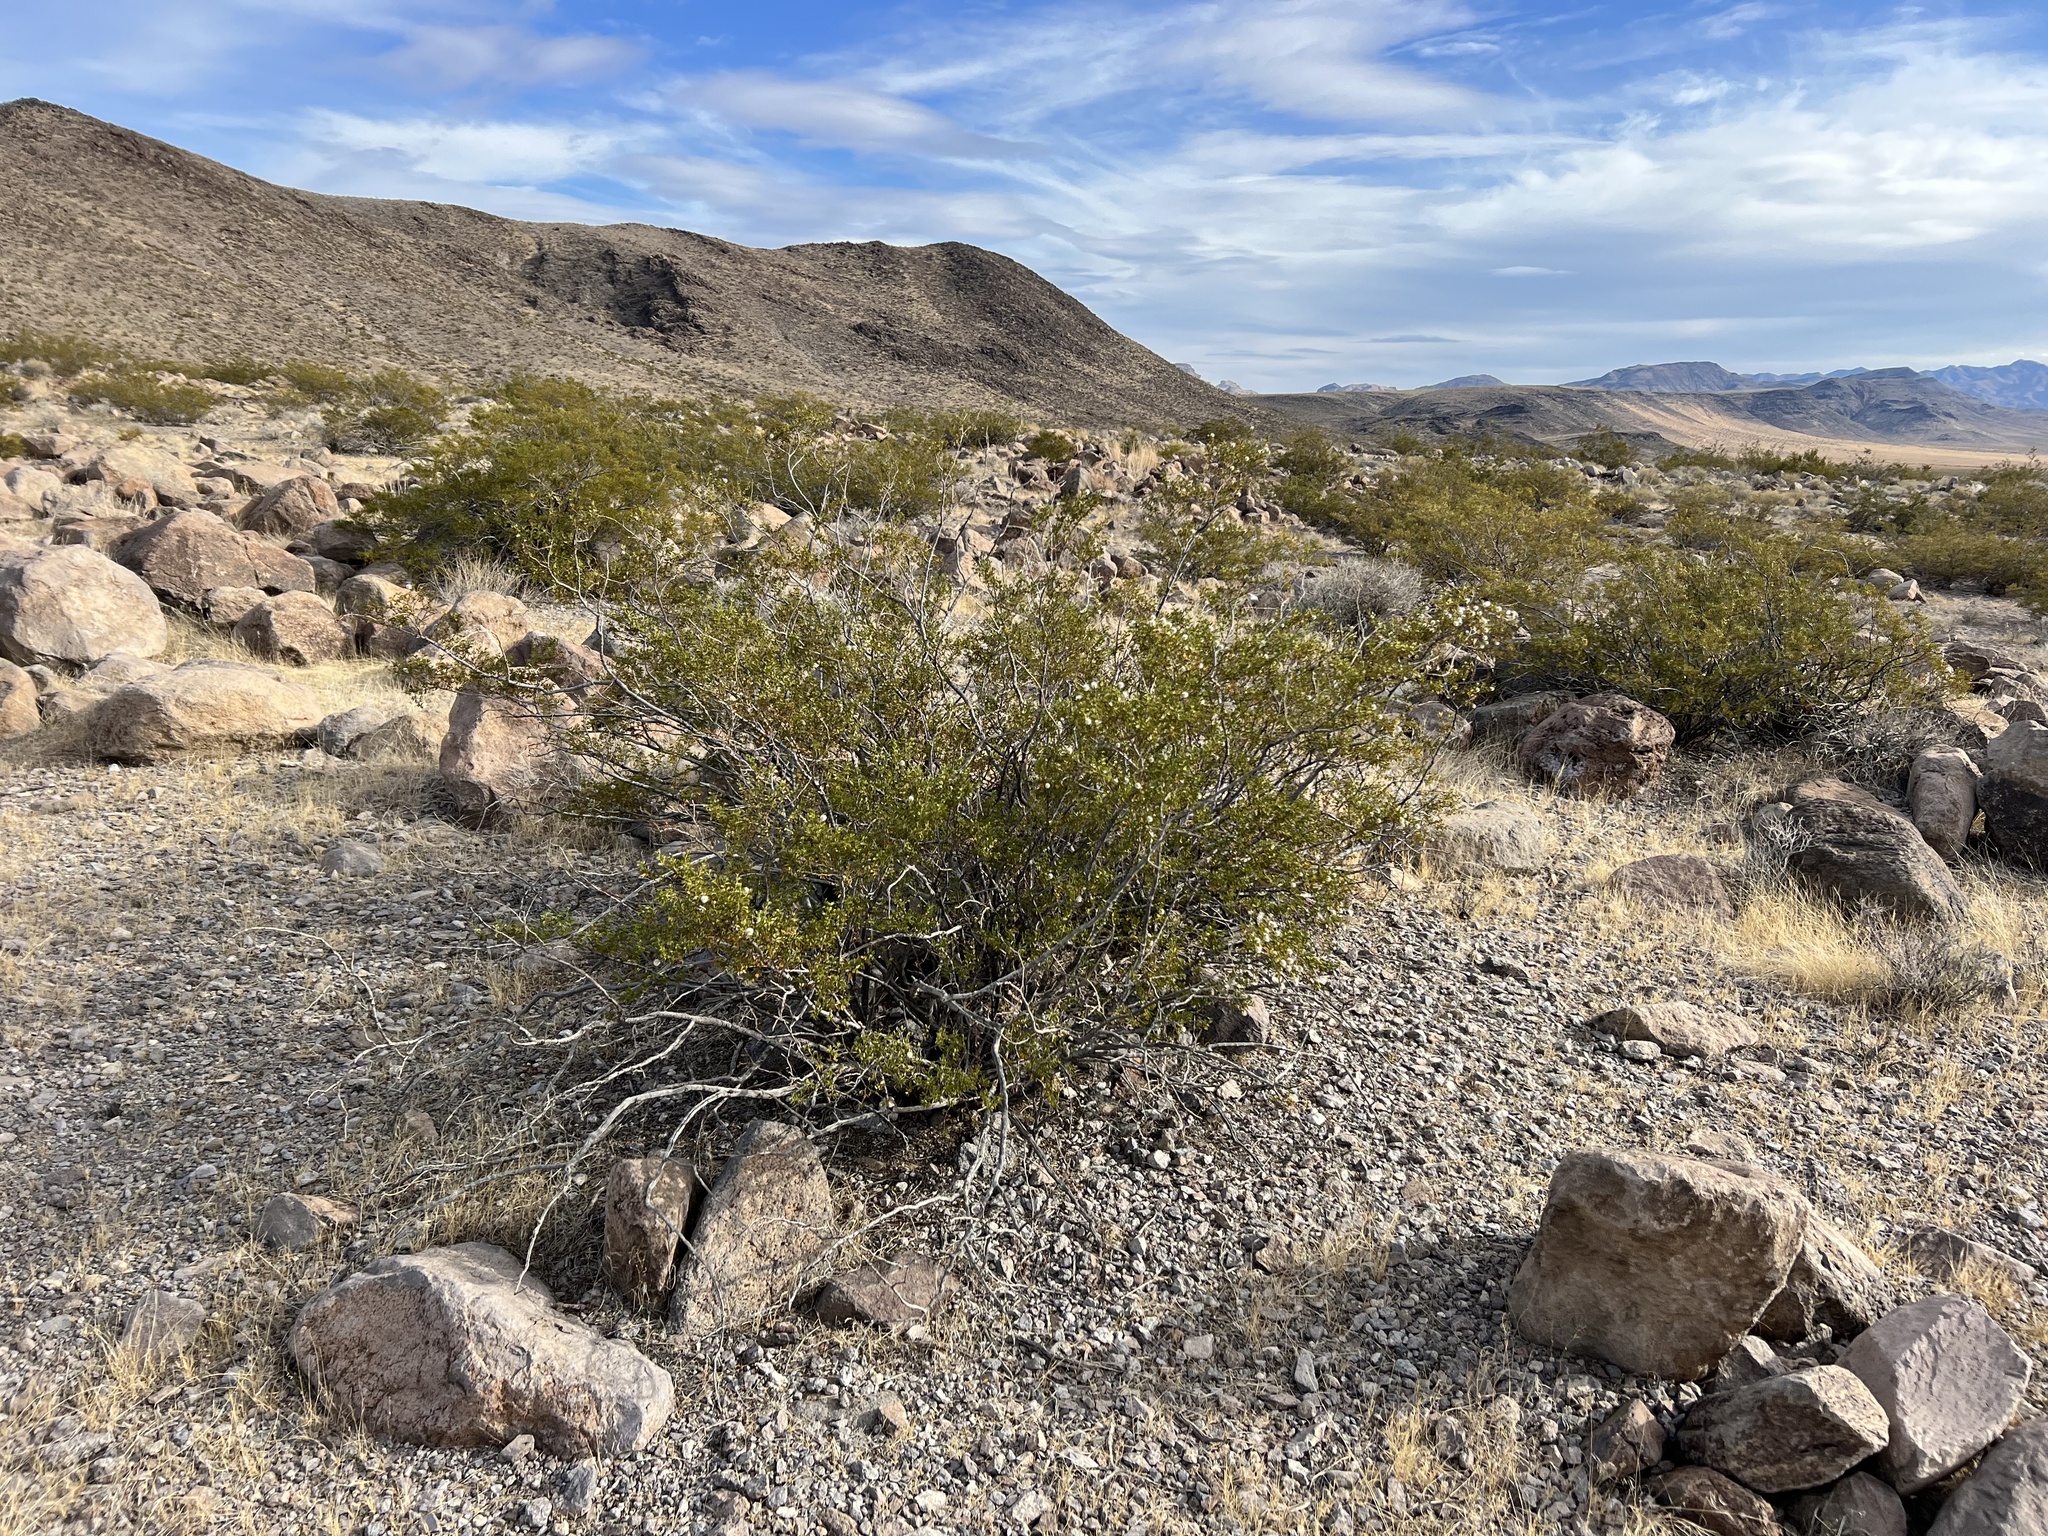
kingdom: Plantae
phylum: Tracheophyta
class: Magnoliopsida
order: Zygophyllales
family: Zygophyllaceae
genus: Larrea
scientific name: Larrea tridentata
